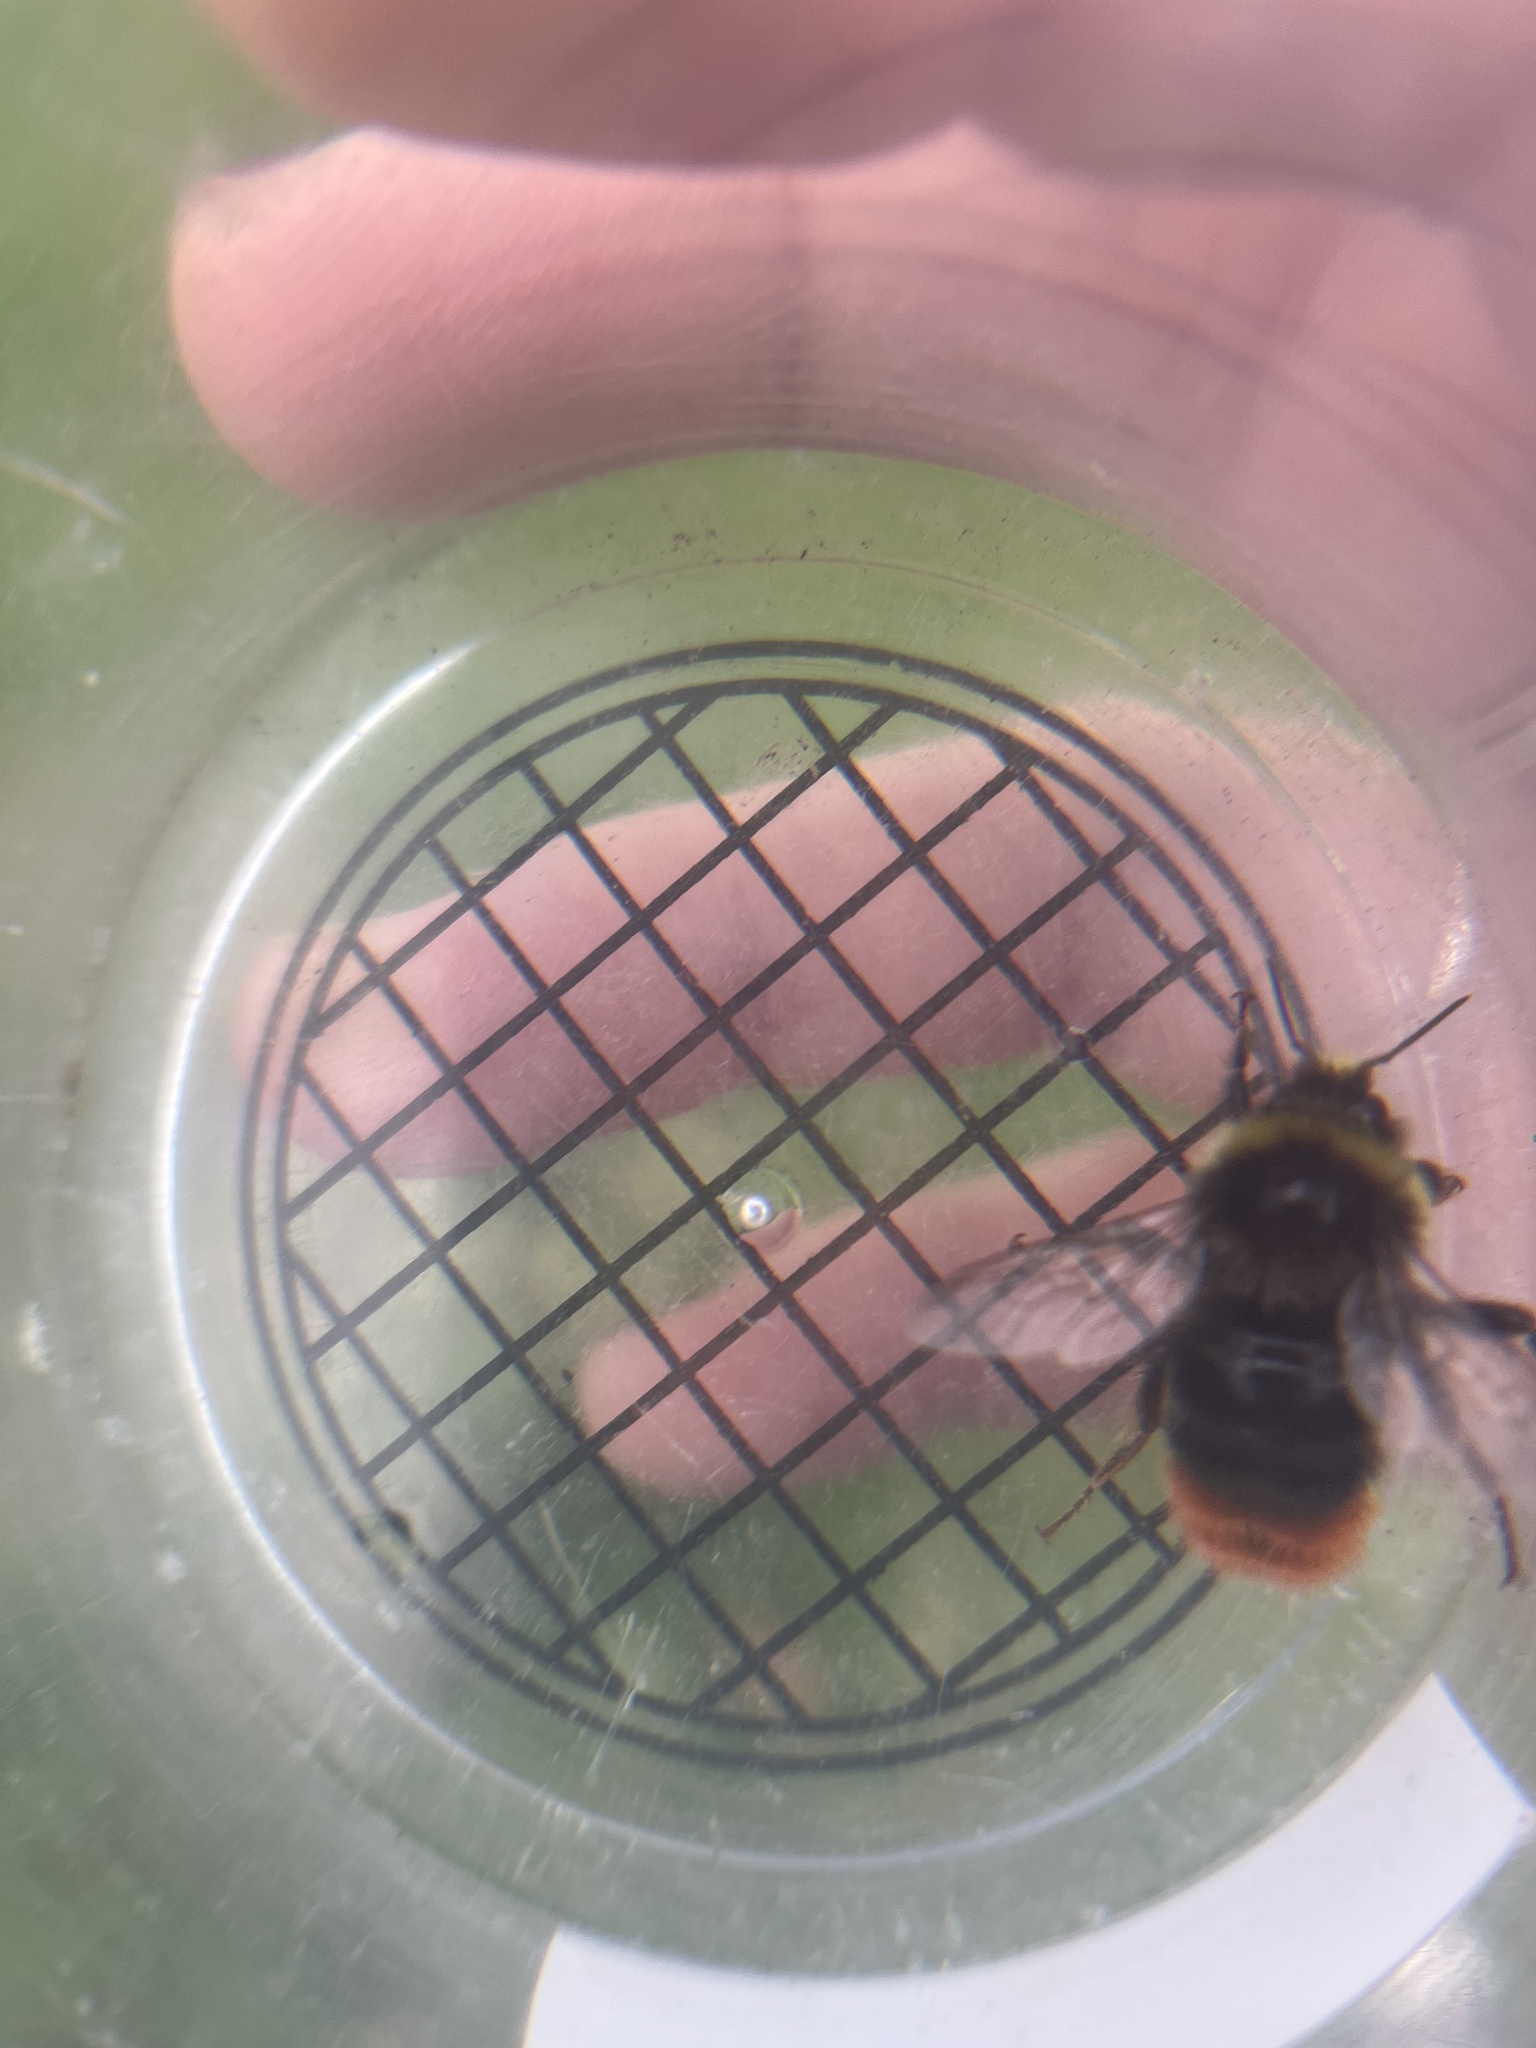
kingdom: Animalia
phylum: Arthropoda
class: Insecta
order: Hymenoptera
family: Apidae
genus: Bombus
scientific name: Bombus lapidarius
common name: Large red-tailed humble-bee
